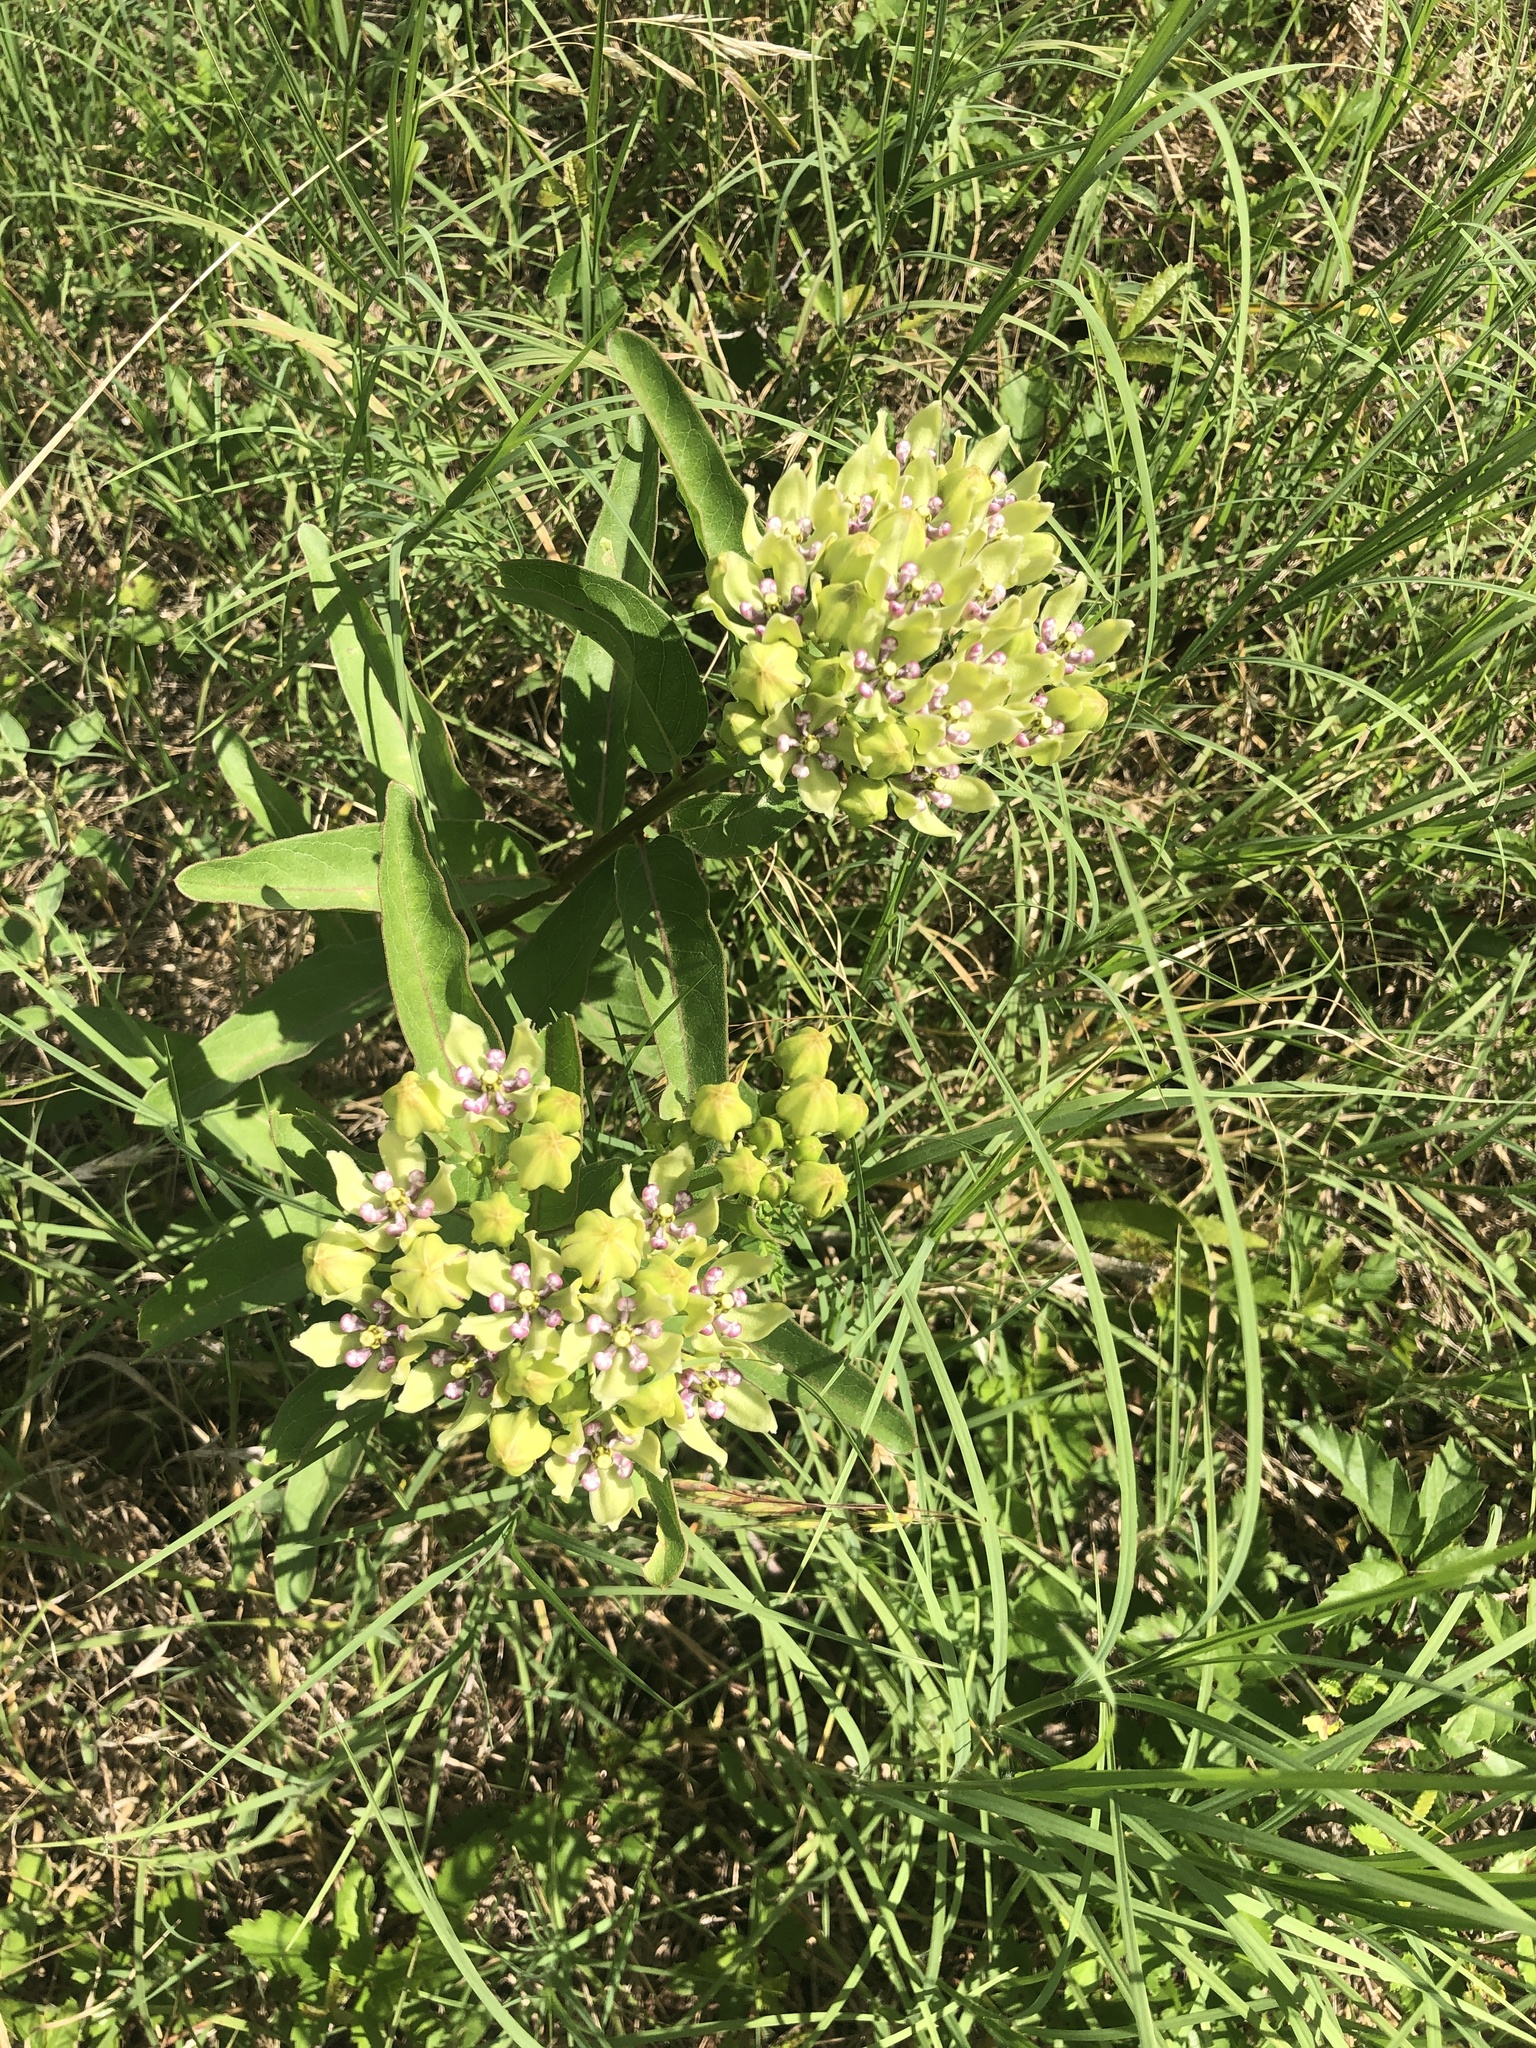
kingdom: Plantae
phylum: Tracheophyta
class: Magnoliopsida
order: Gentianales
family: Apocynaceae
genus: Asclepias
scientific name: Asclepias viridis
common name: Antelope-horns
